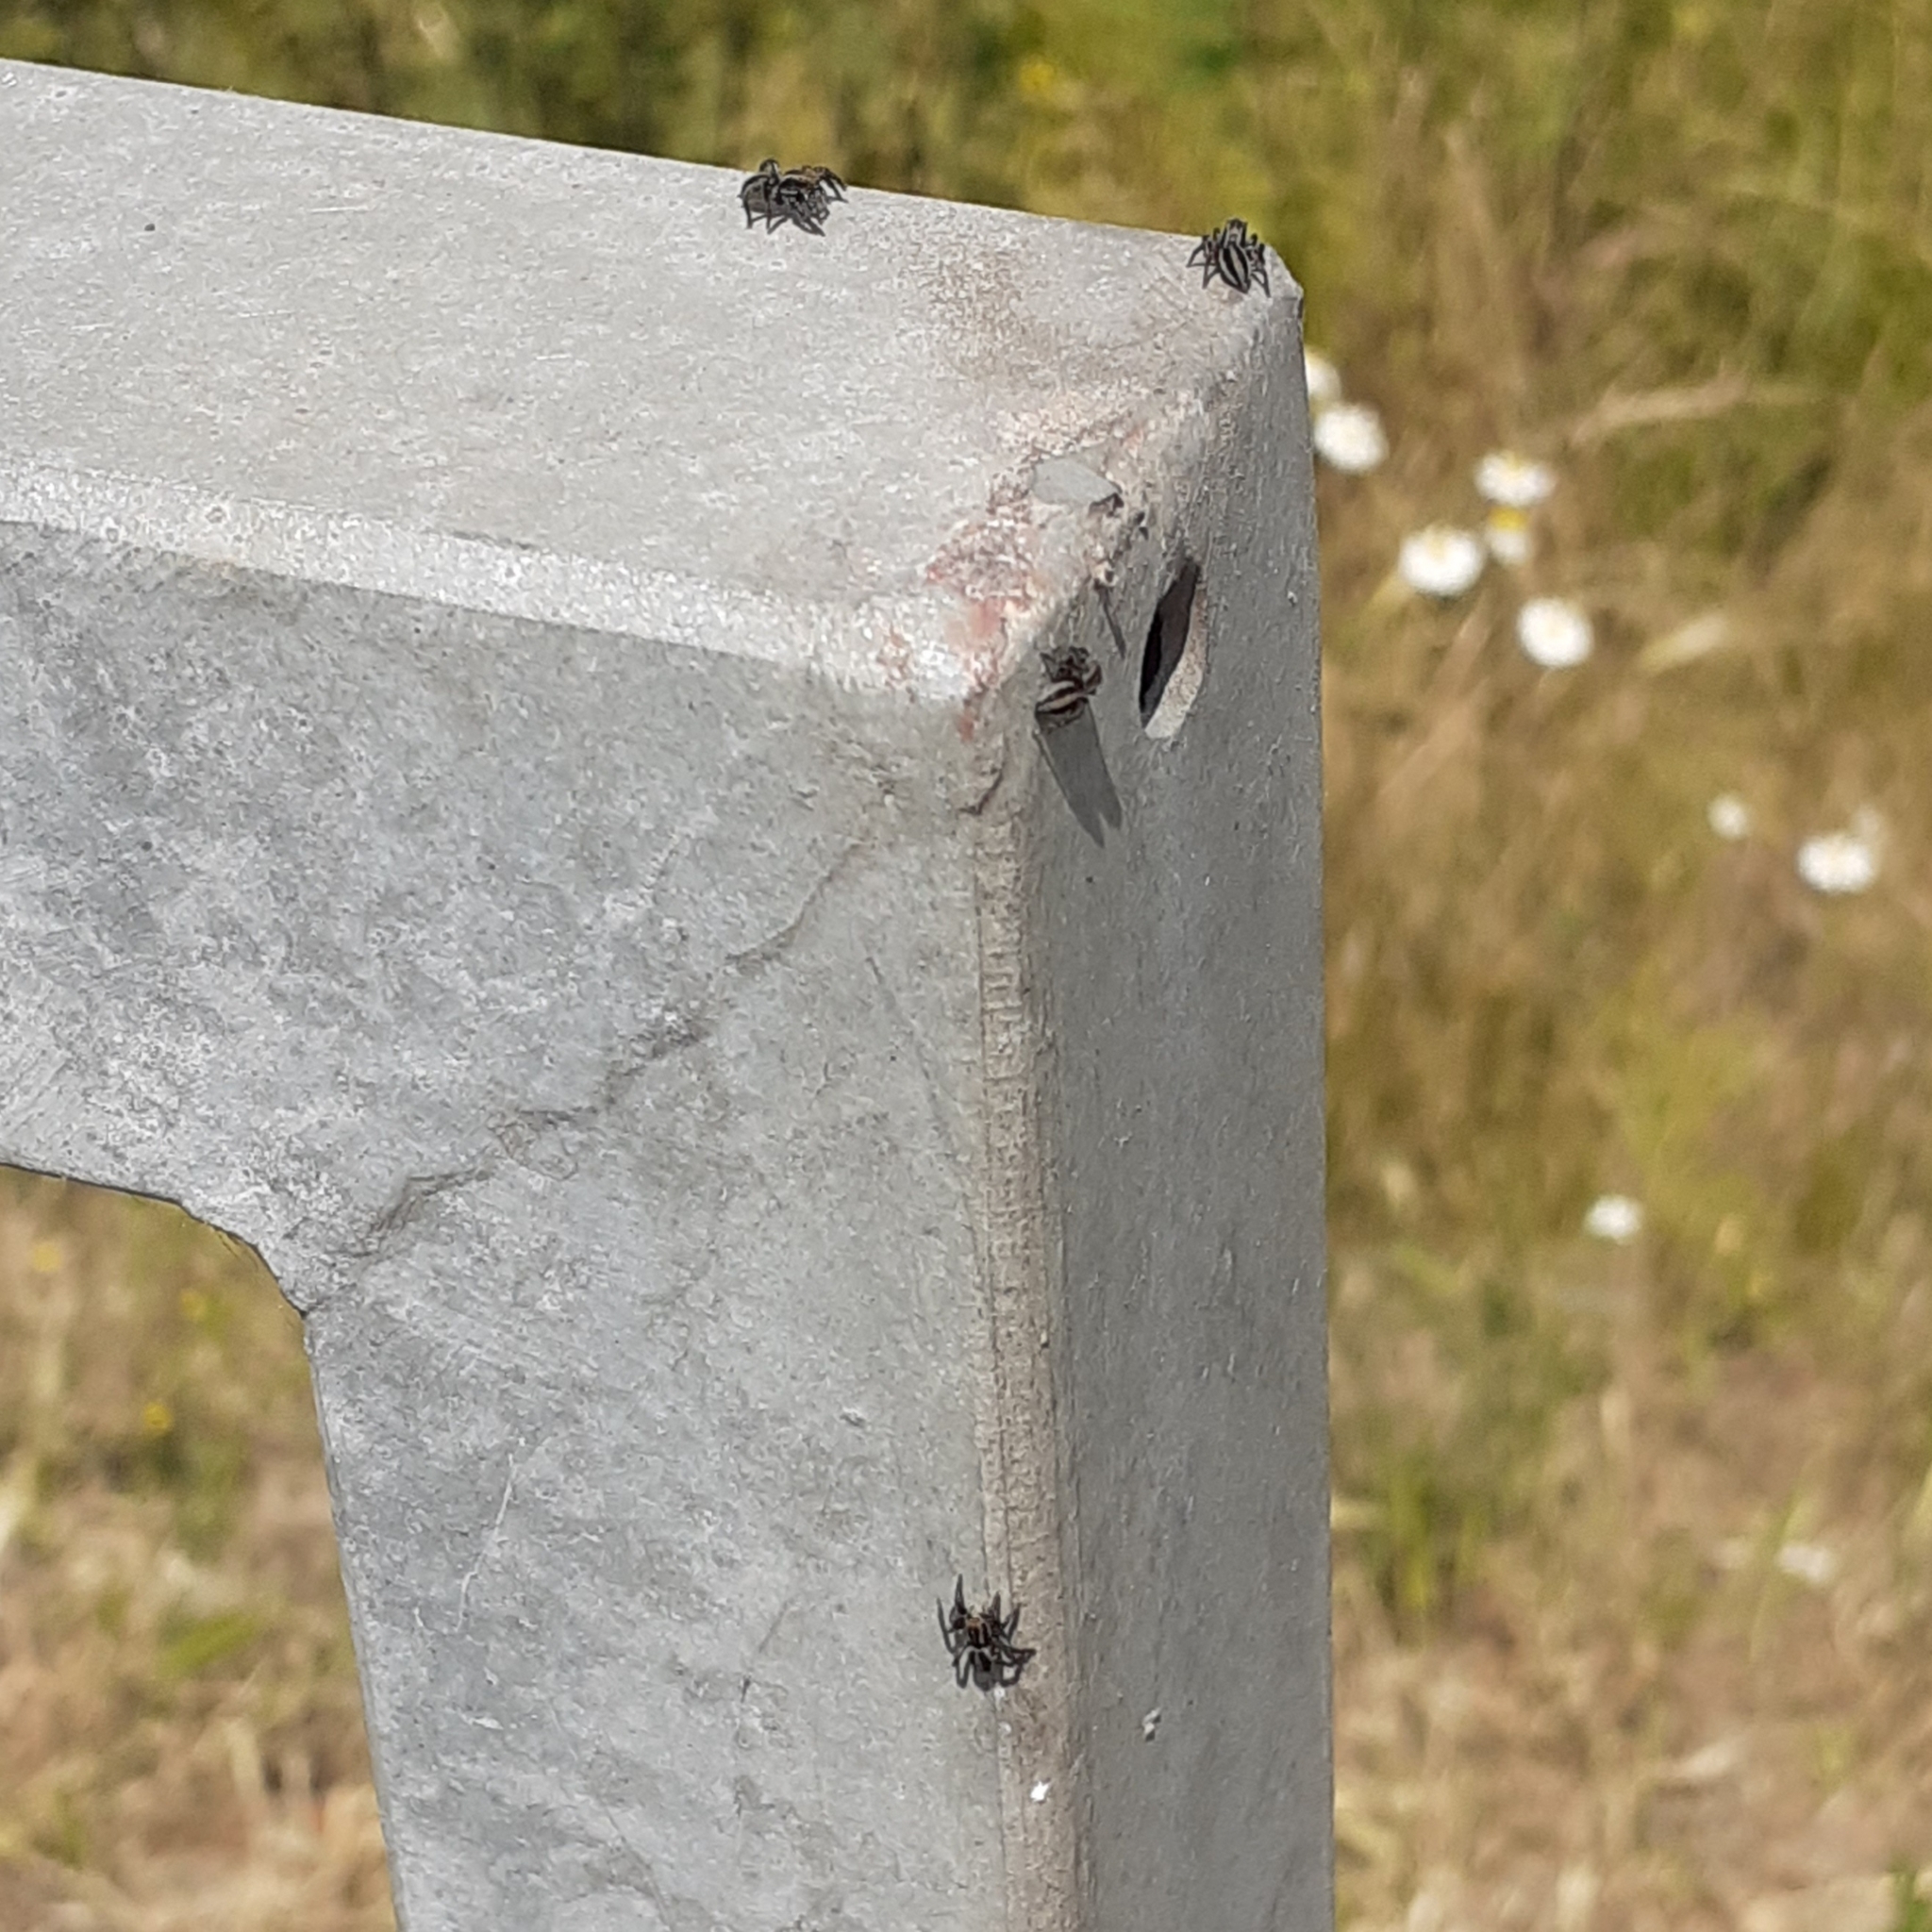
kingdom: Animalia
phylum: Arthropoda
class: Arachnida
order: Araneae
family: Salticidae
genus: Phlegra
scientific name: Phlegra fasciata
